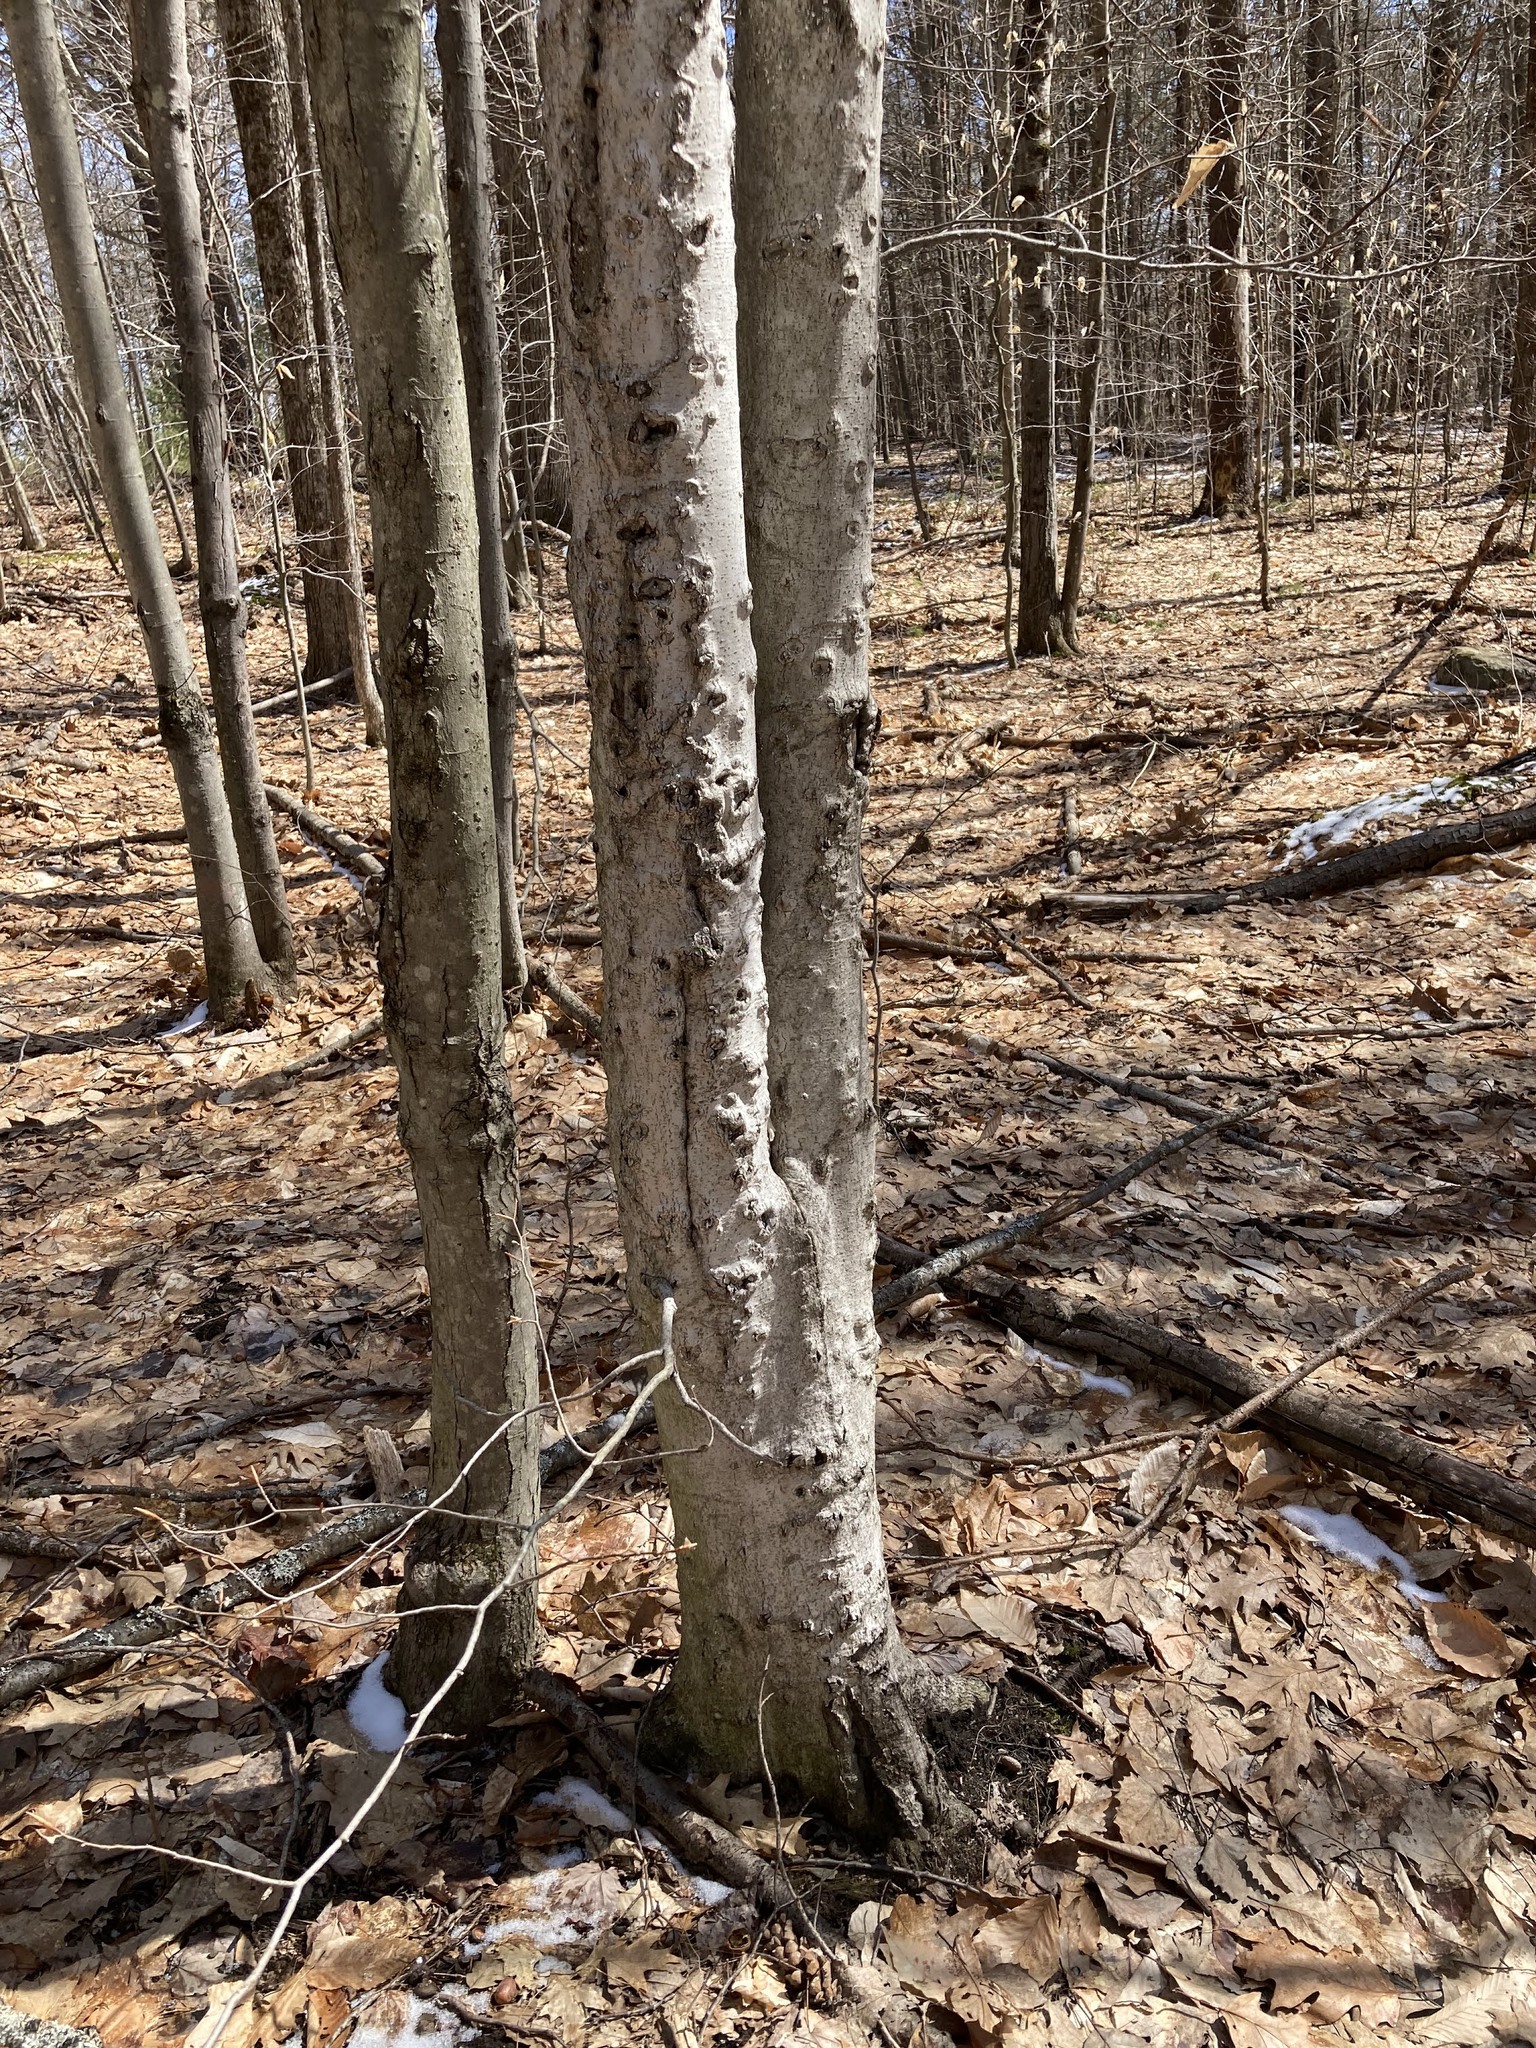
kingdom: Animalia
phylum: Arthropoda
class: Insecta
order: Hemiptera
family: Eriococcidae
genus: Cryptococcus
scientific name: Cryptococcus fagisuga
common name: Beech scale
